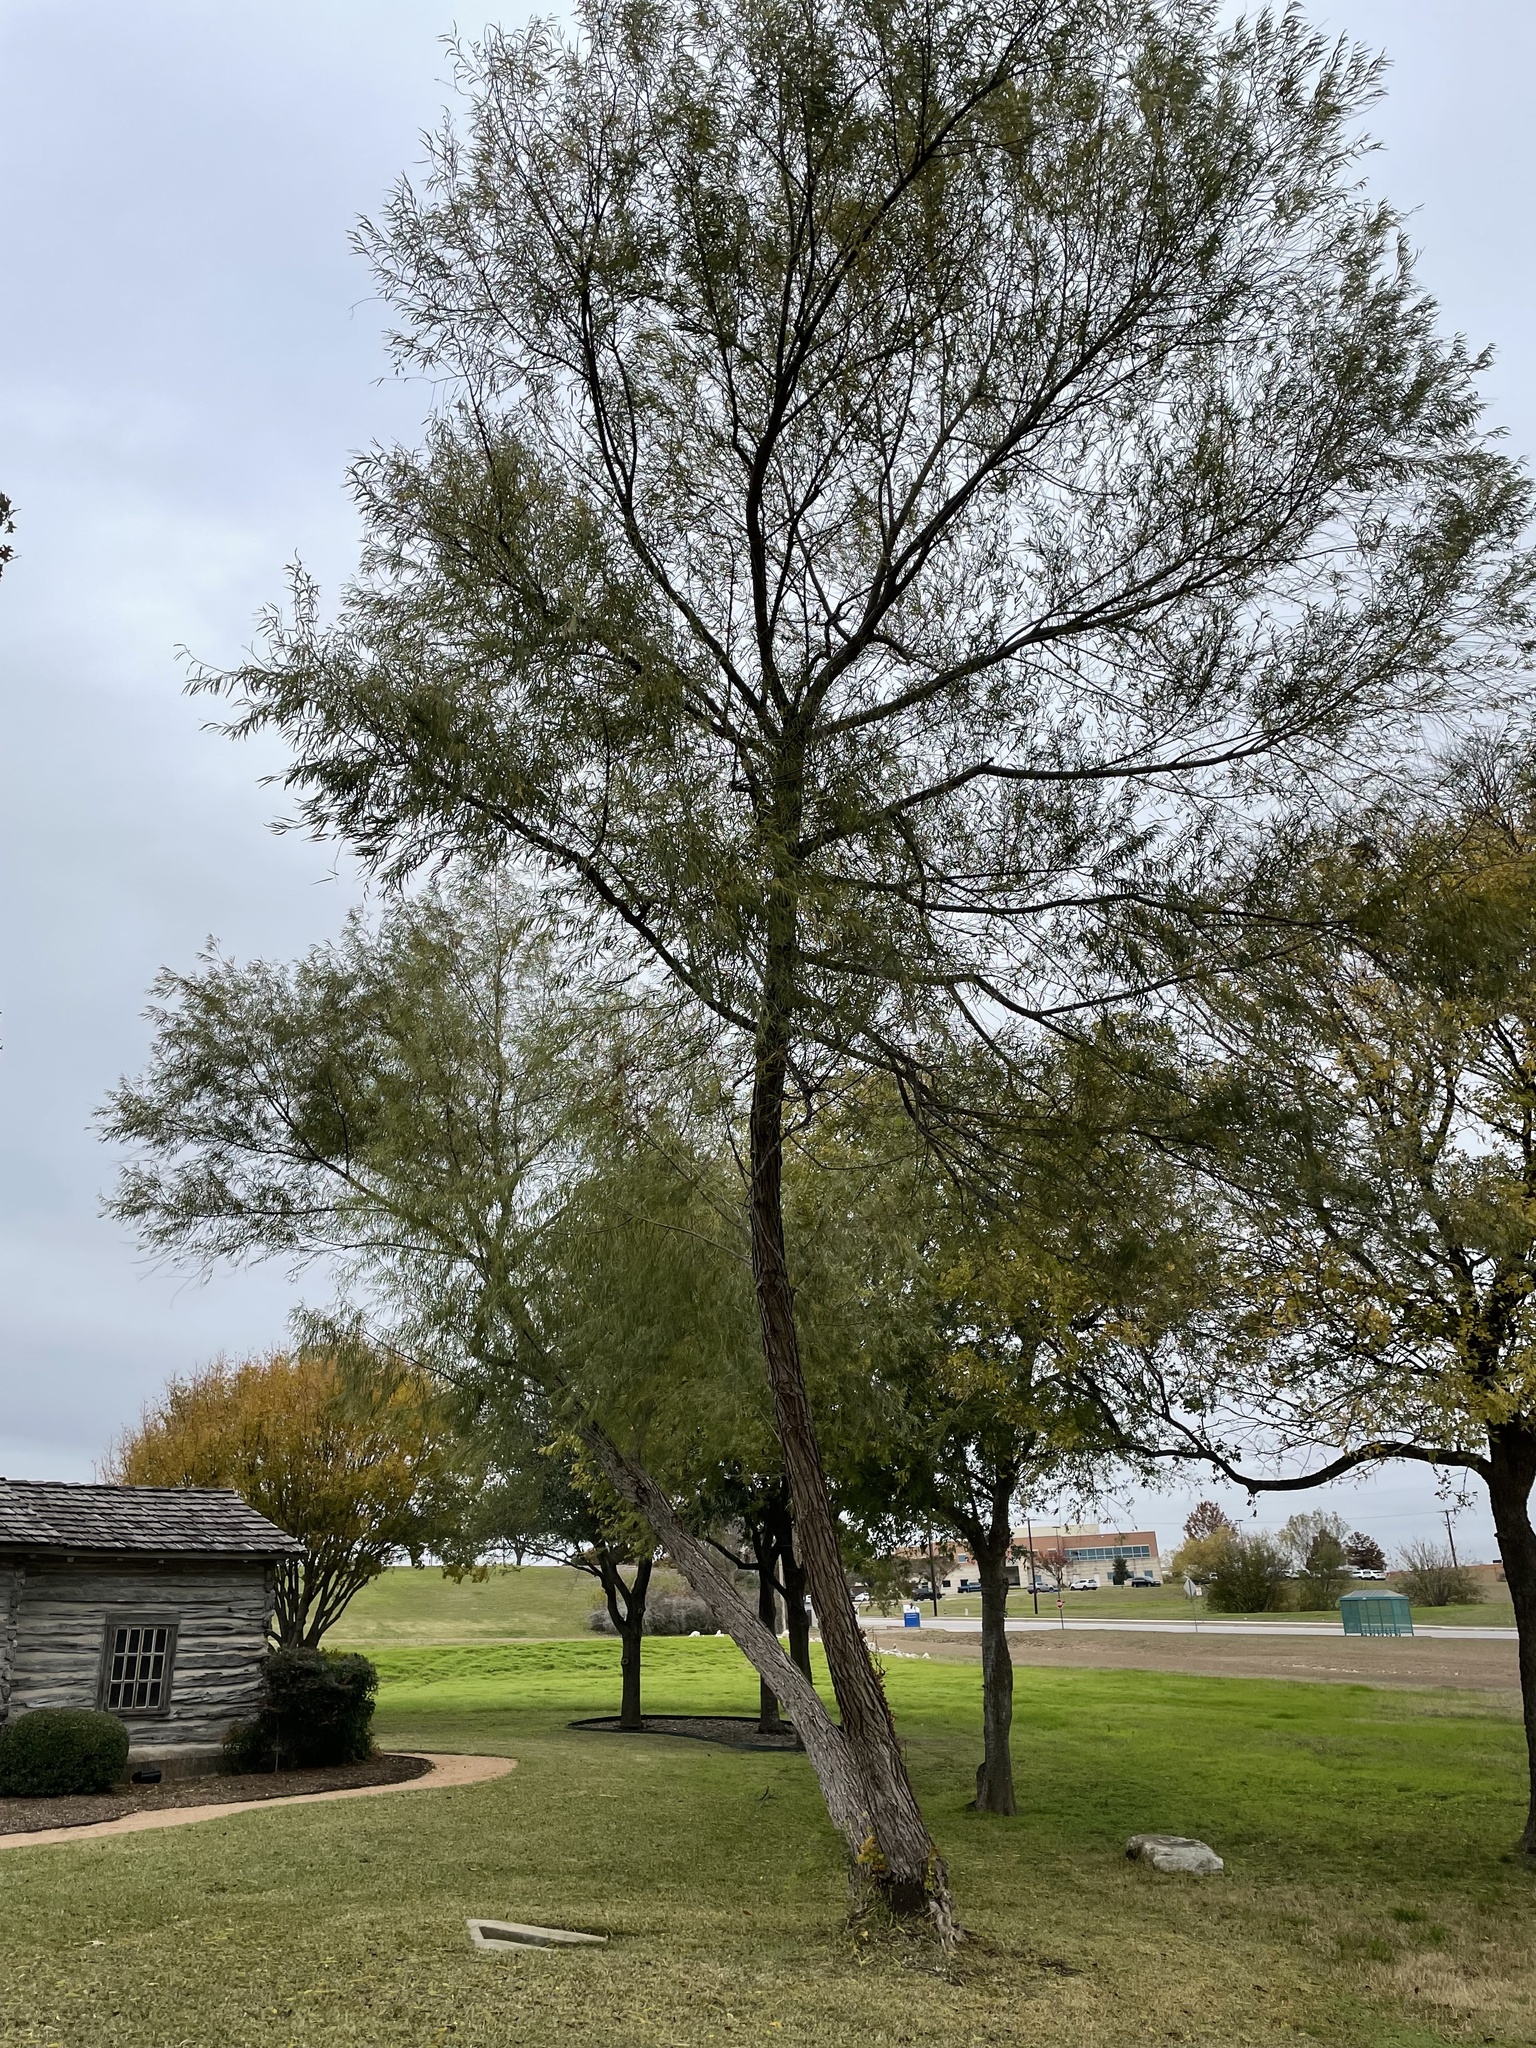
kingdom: Plantae
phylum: Tracheophyta
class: Magnoliopsida
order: Malpighiales
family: Salicaceae
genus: Salix
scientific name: Salix nigra
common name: Black willow
